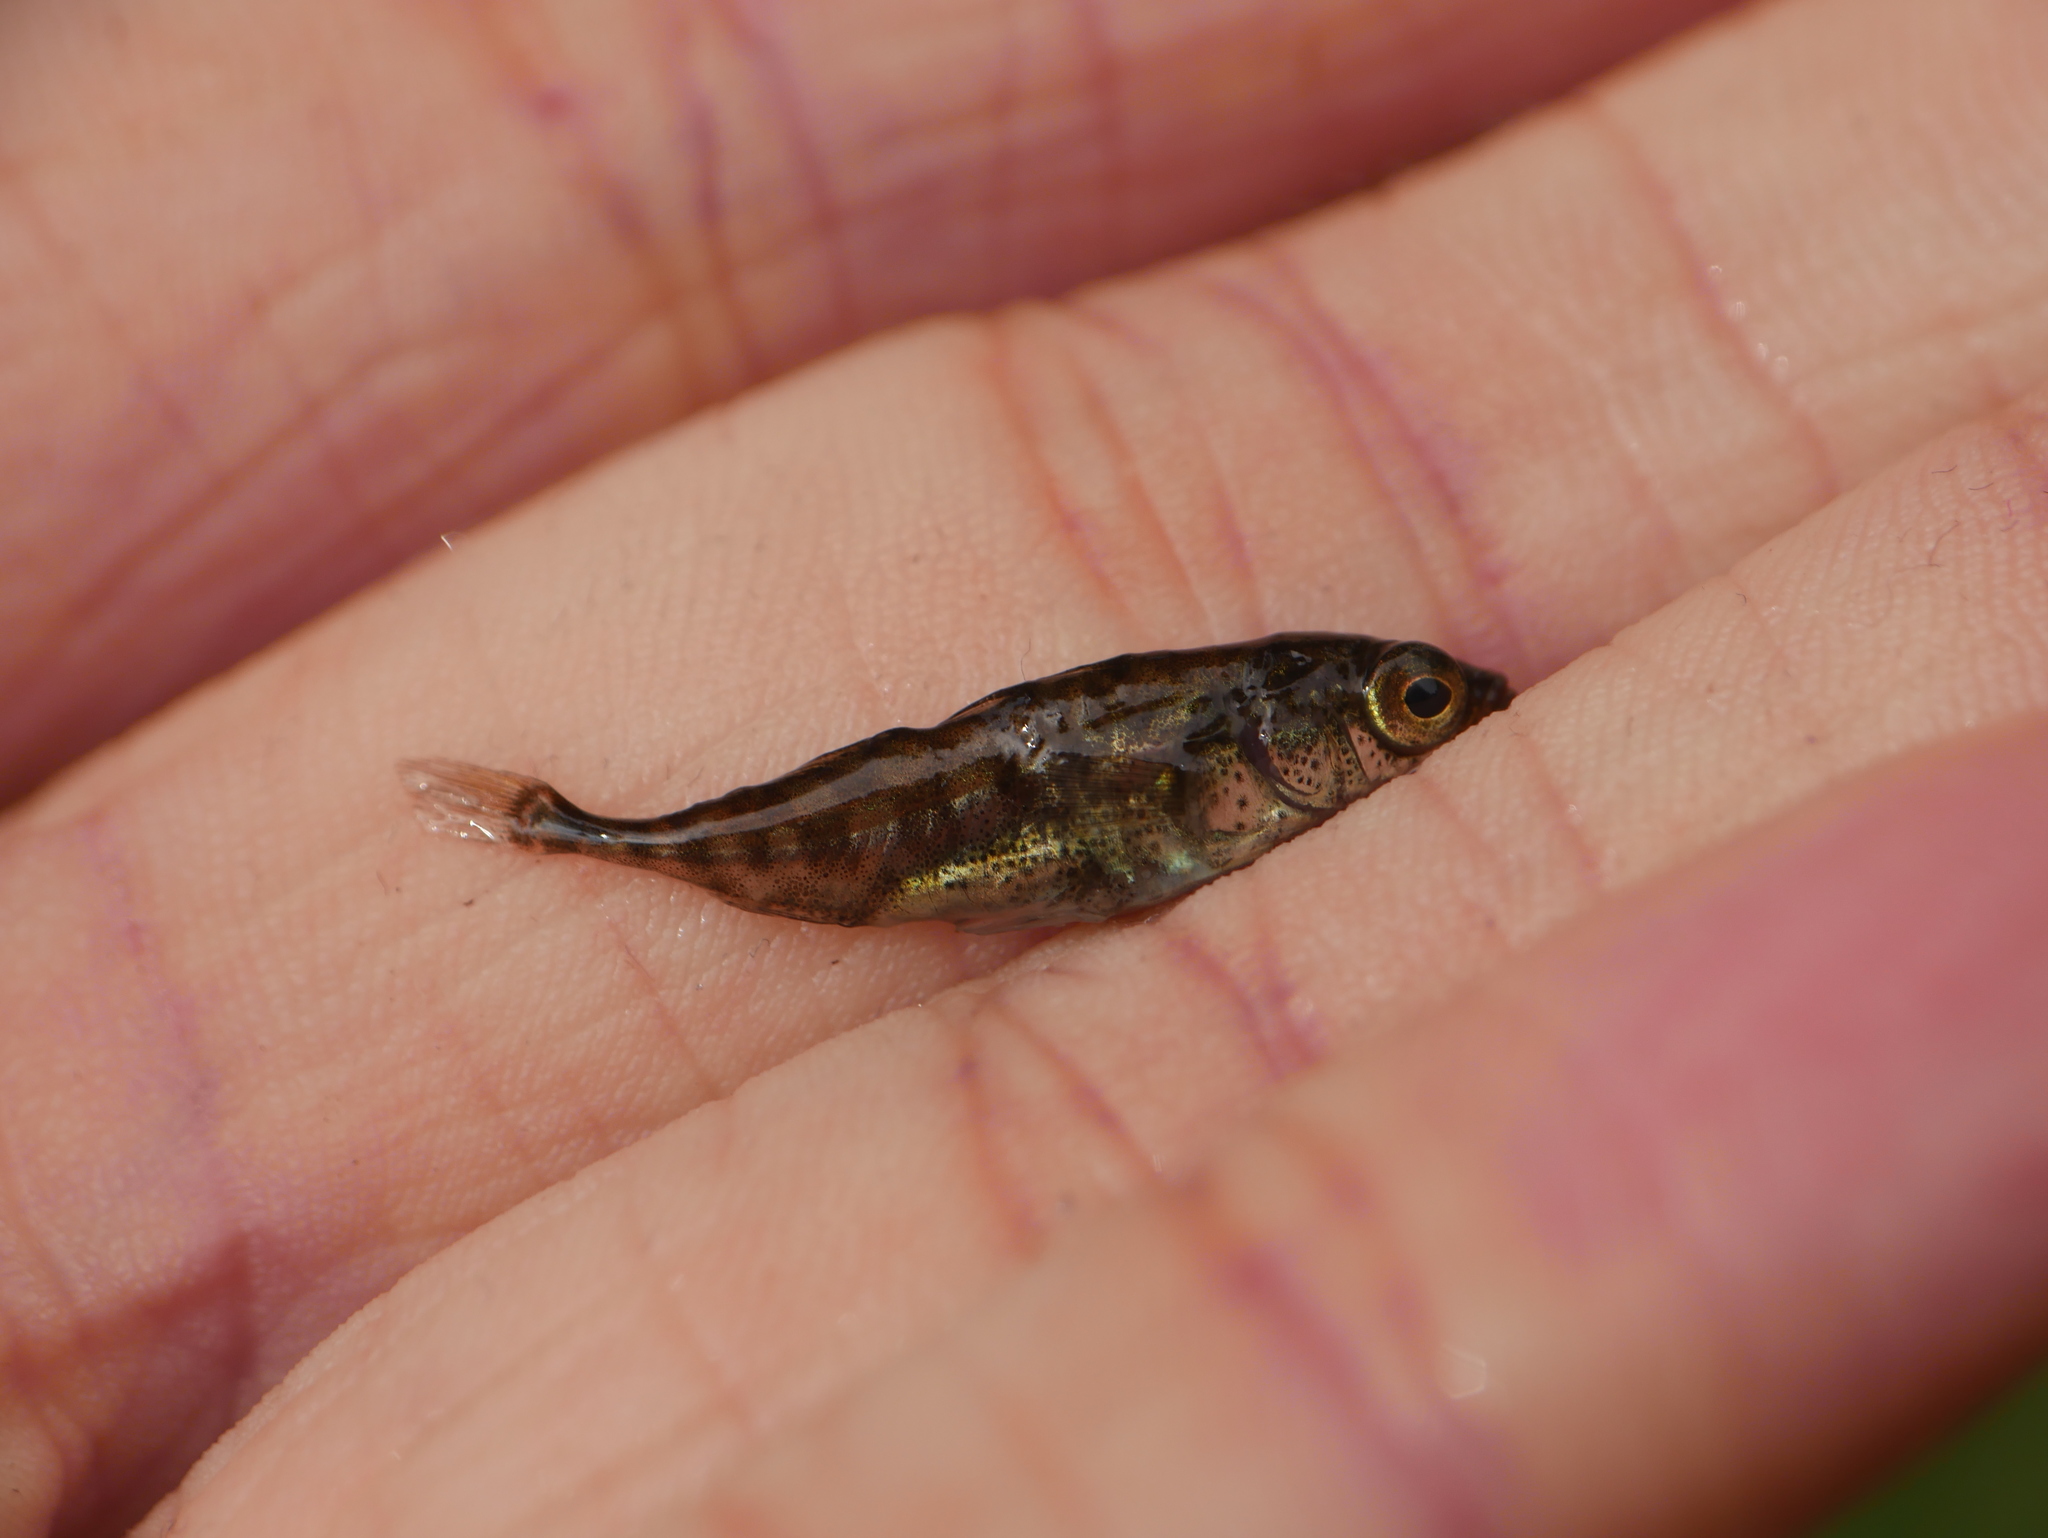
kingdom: Animalia
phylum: Chordata
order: Gasterosteiformes
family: Gasterosteidae
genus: Gasterosteus
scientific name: Gasterosteus aculeatus
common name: Three-spined stickleback
